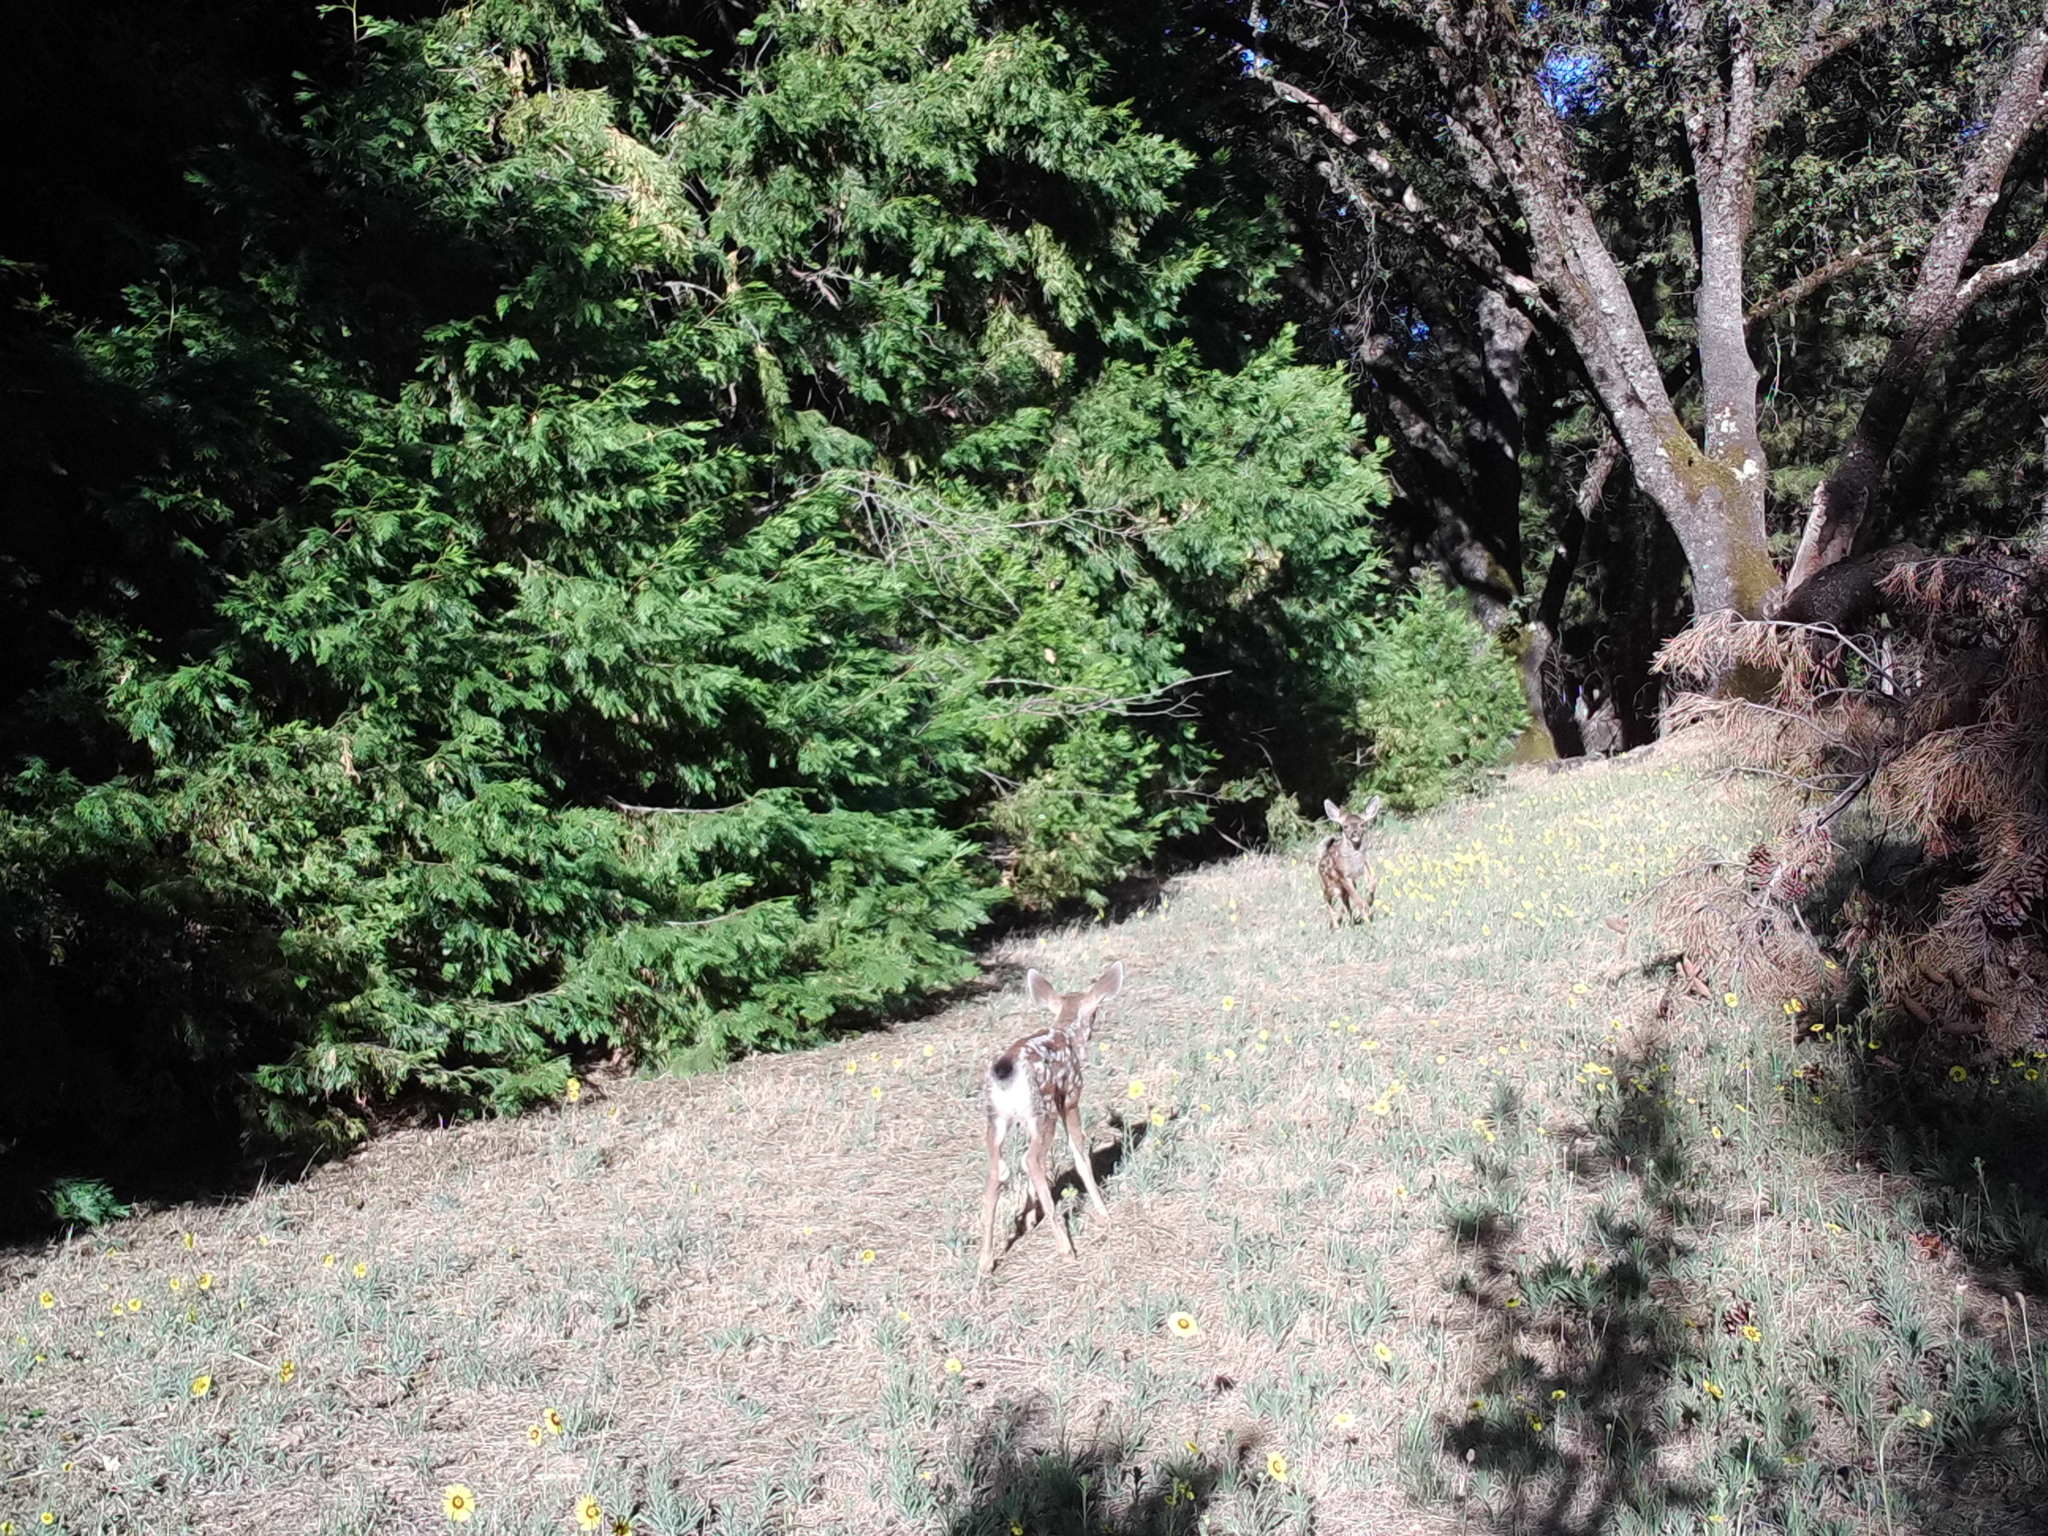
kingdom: Animalia
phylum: Chordata
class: Mammalia
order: Artiodactyla
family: Cervidae
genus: Odocoileus
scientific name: Odocoileus hemionus
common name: Mule deer
